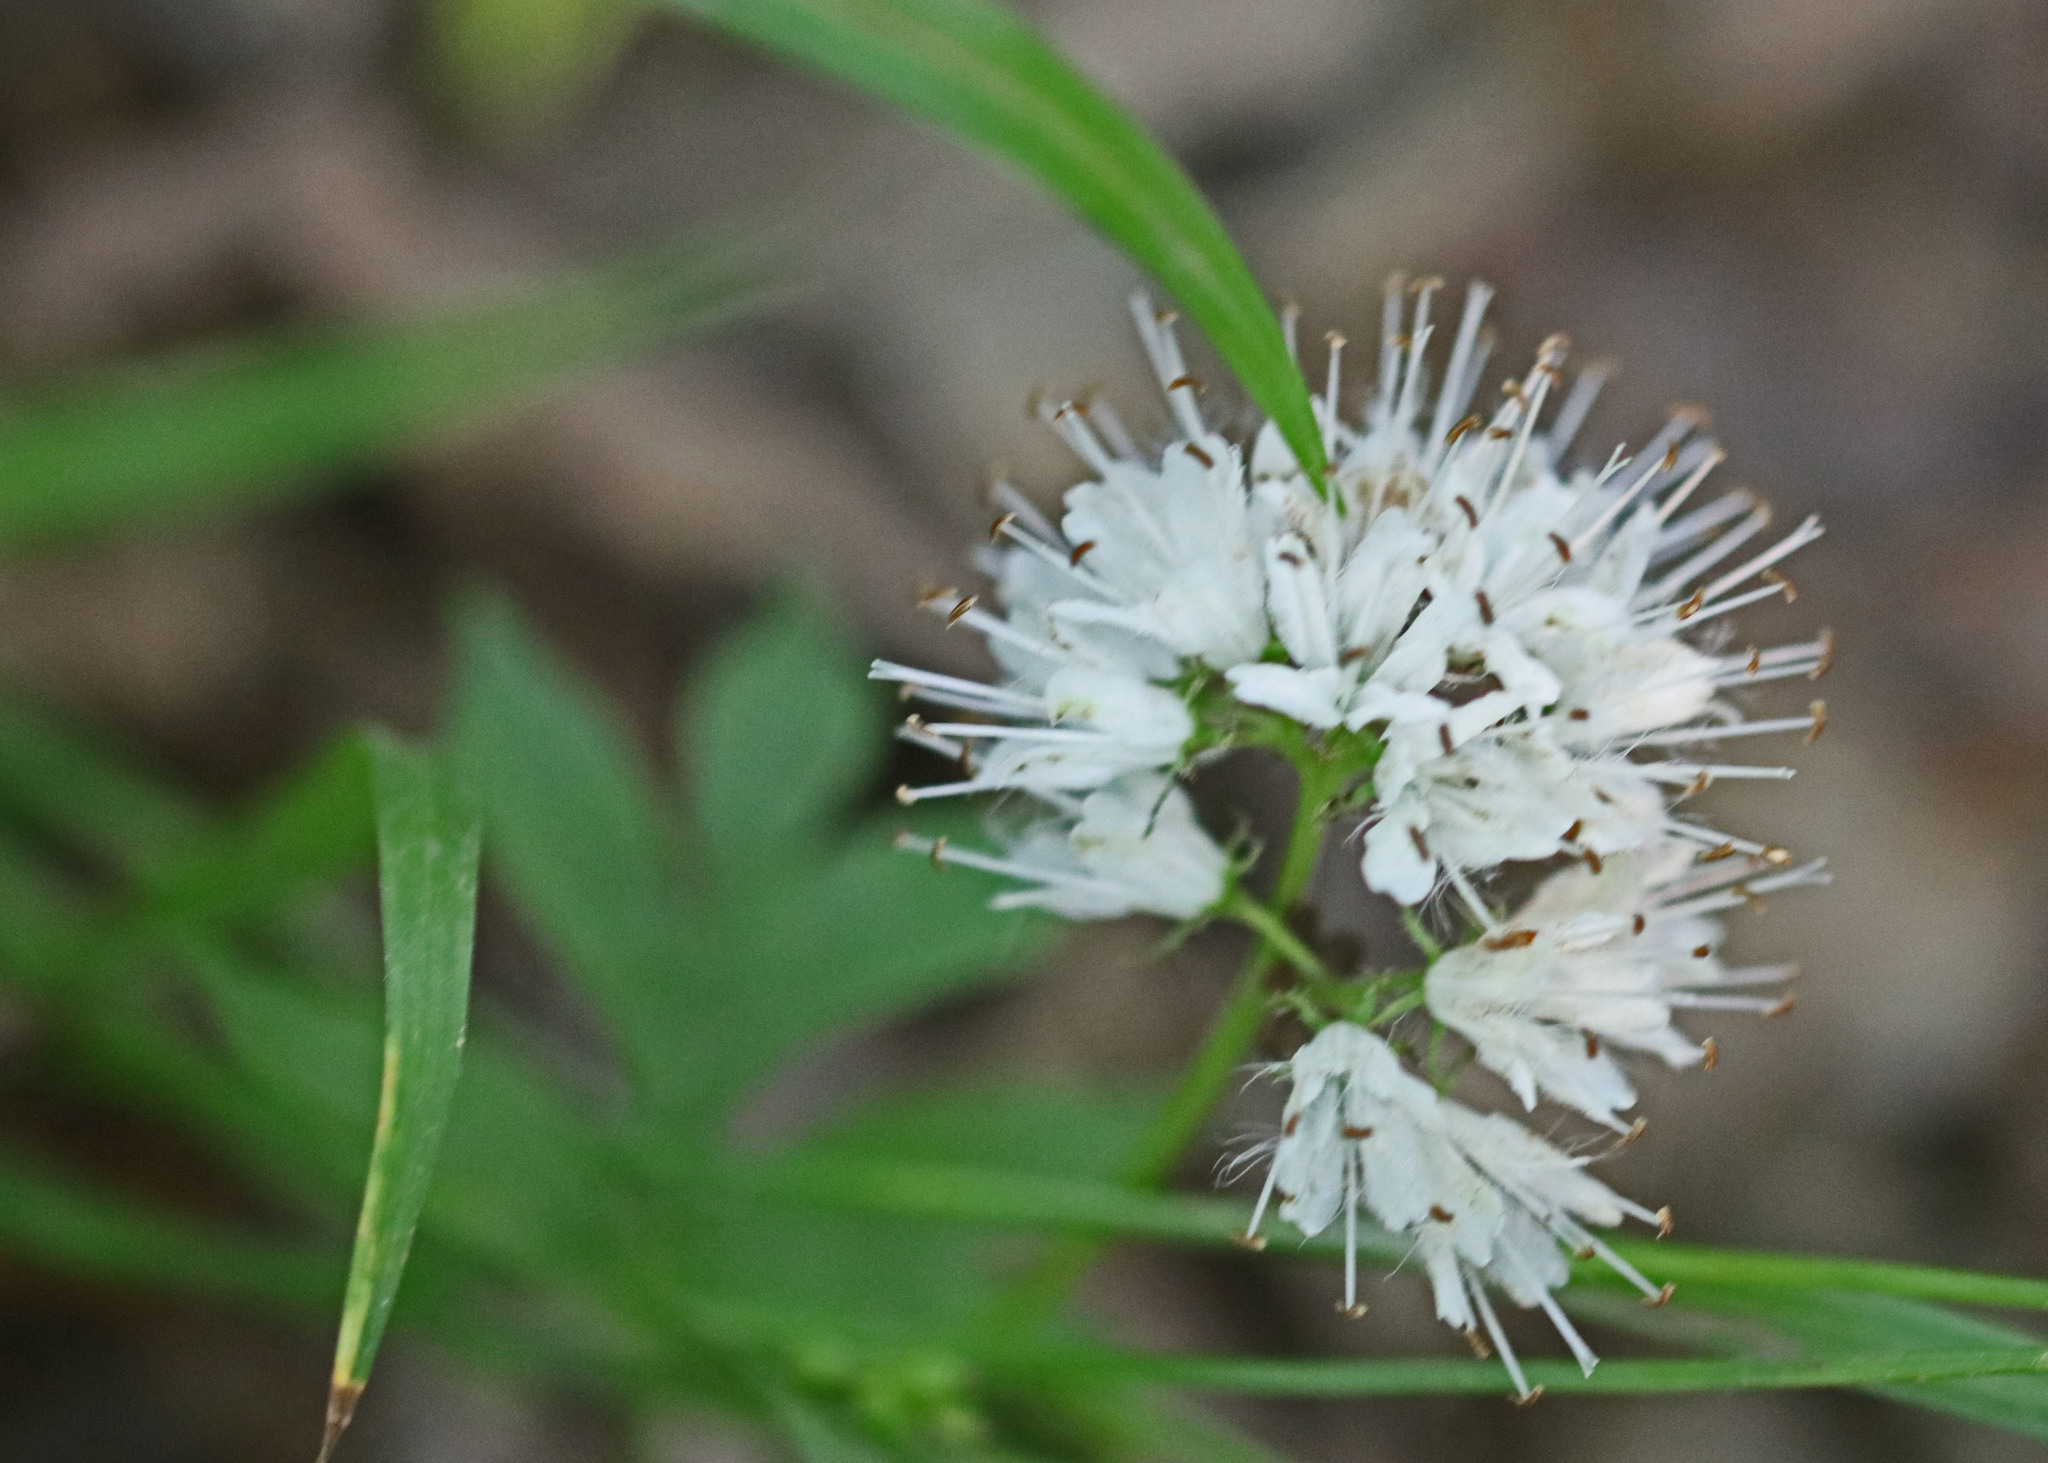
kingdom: Plantae
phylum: Tracheophyta
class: Magnoliopsida
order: Boraginales
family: Hydrophyllaceae
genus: Hydrophyllum
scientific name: Hydrophyllum virginianum
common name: Virginia waterleaf
